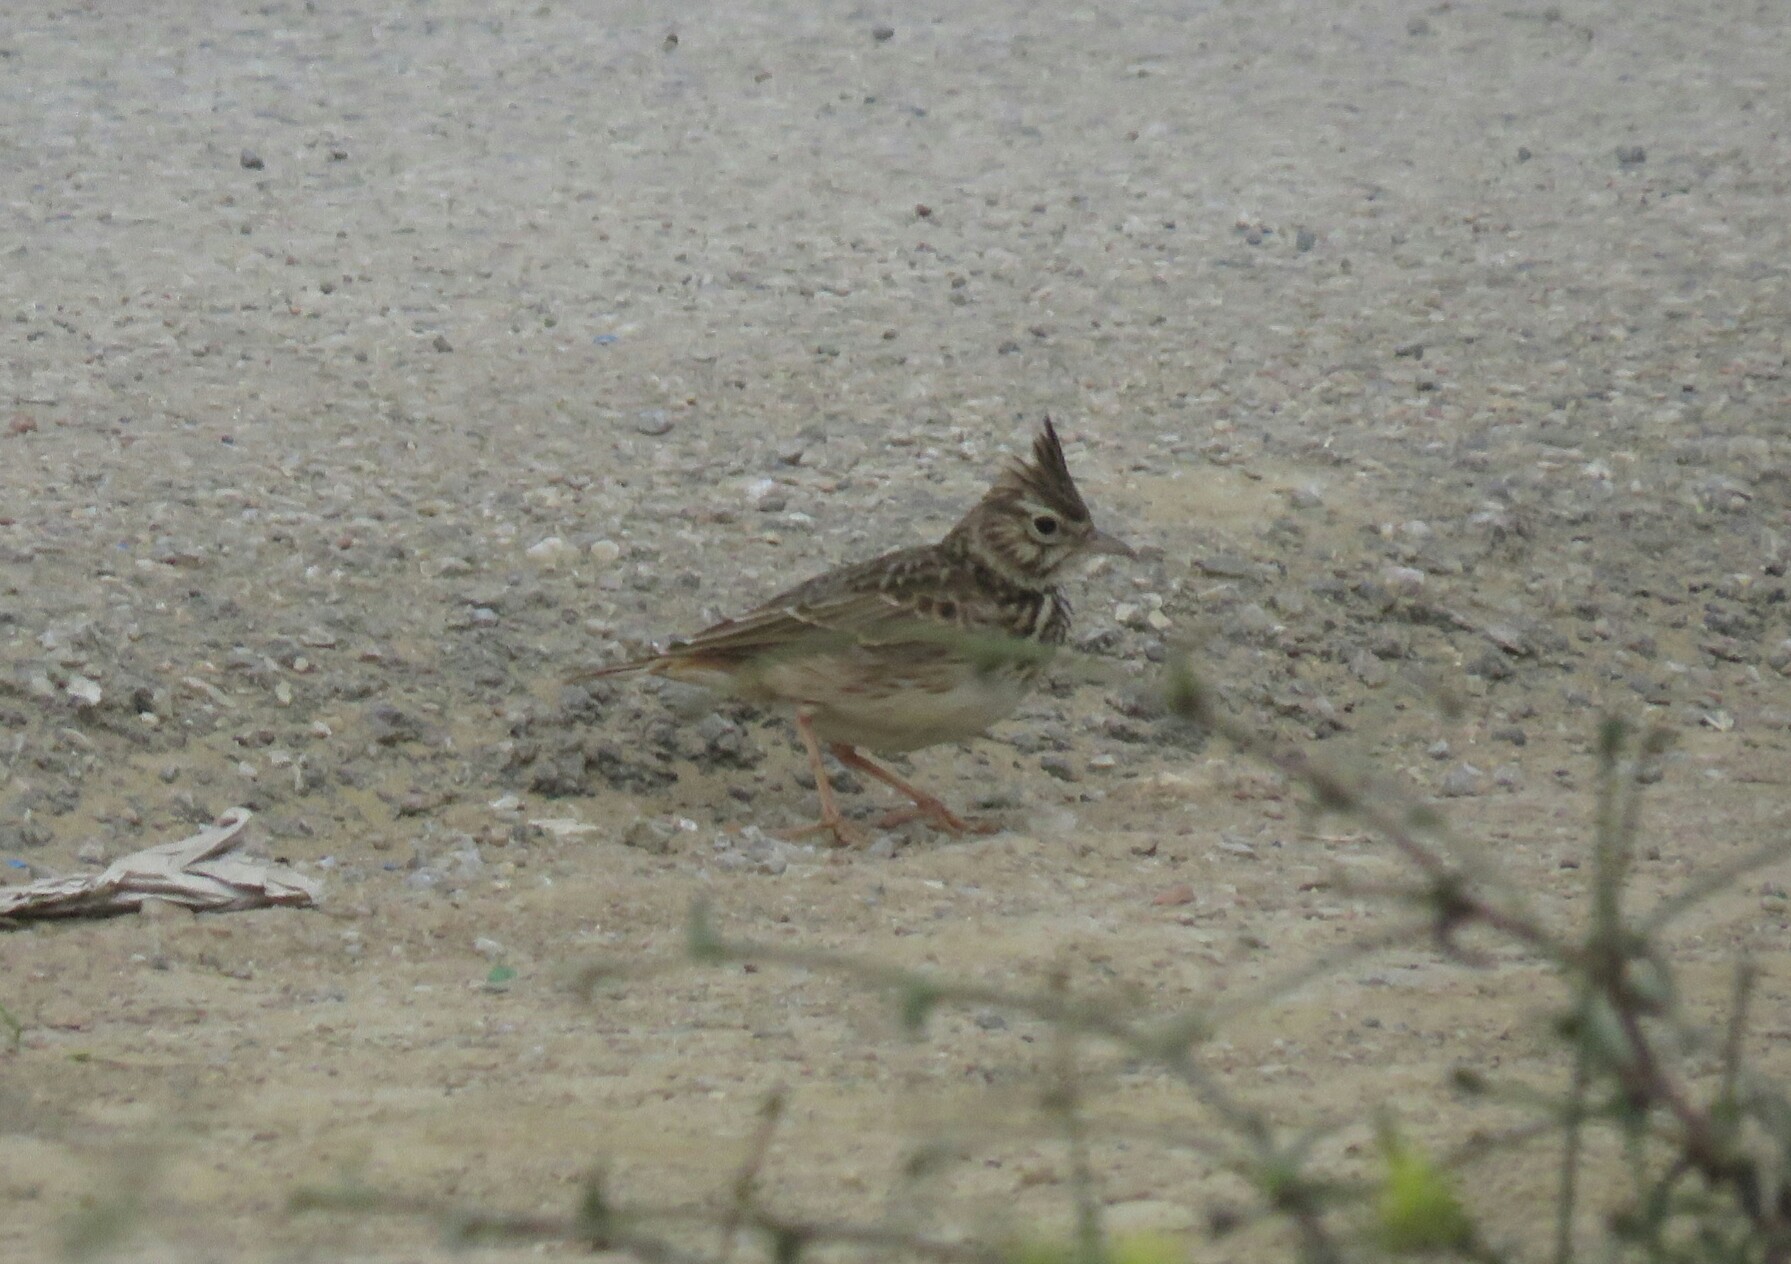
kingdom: Animalia
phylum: Chordata
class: Aves
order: Passeriformes
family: Alaudidae
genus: Galerida
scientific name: Galerida cristata
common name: Crested lark
